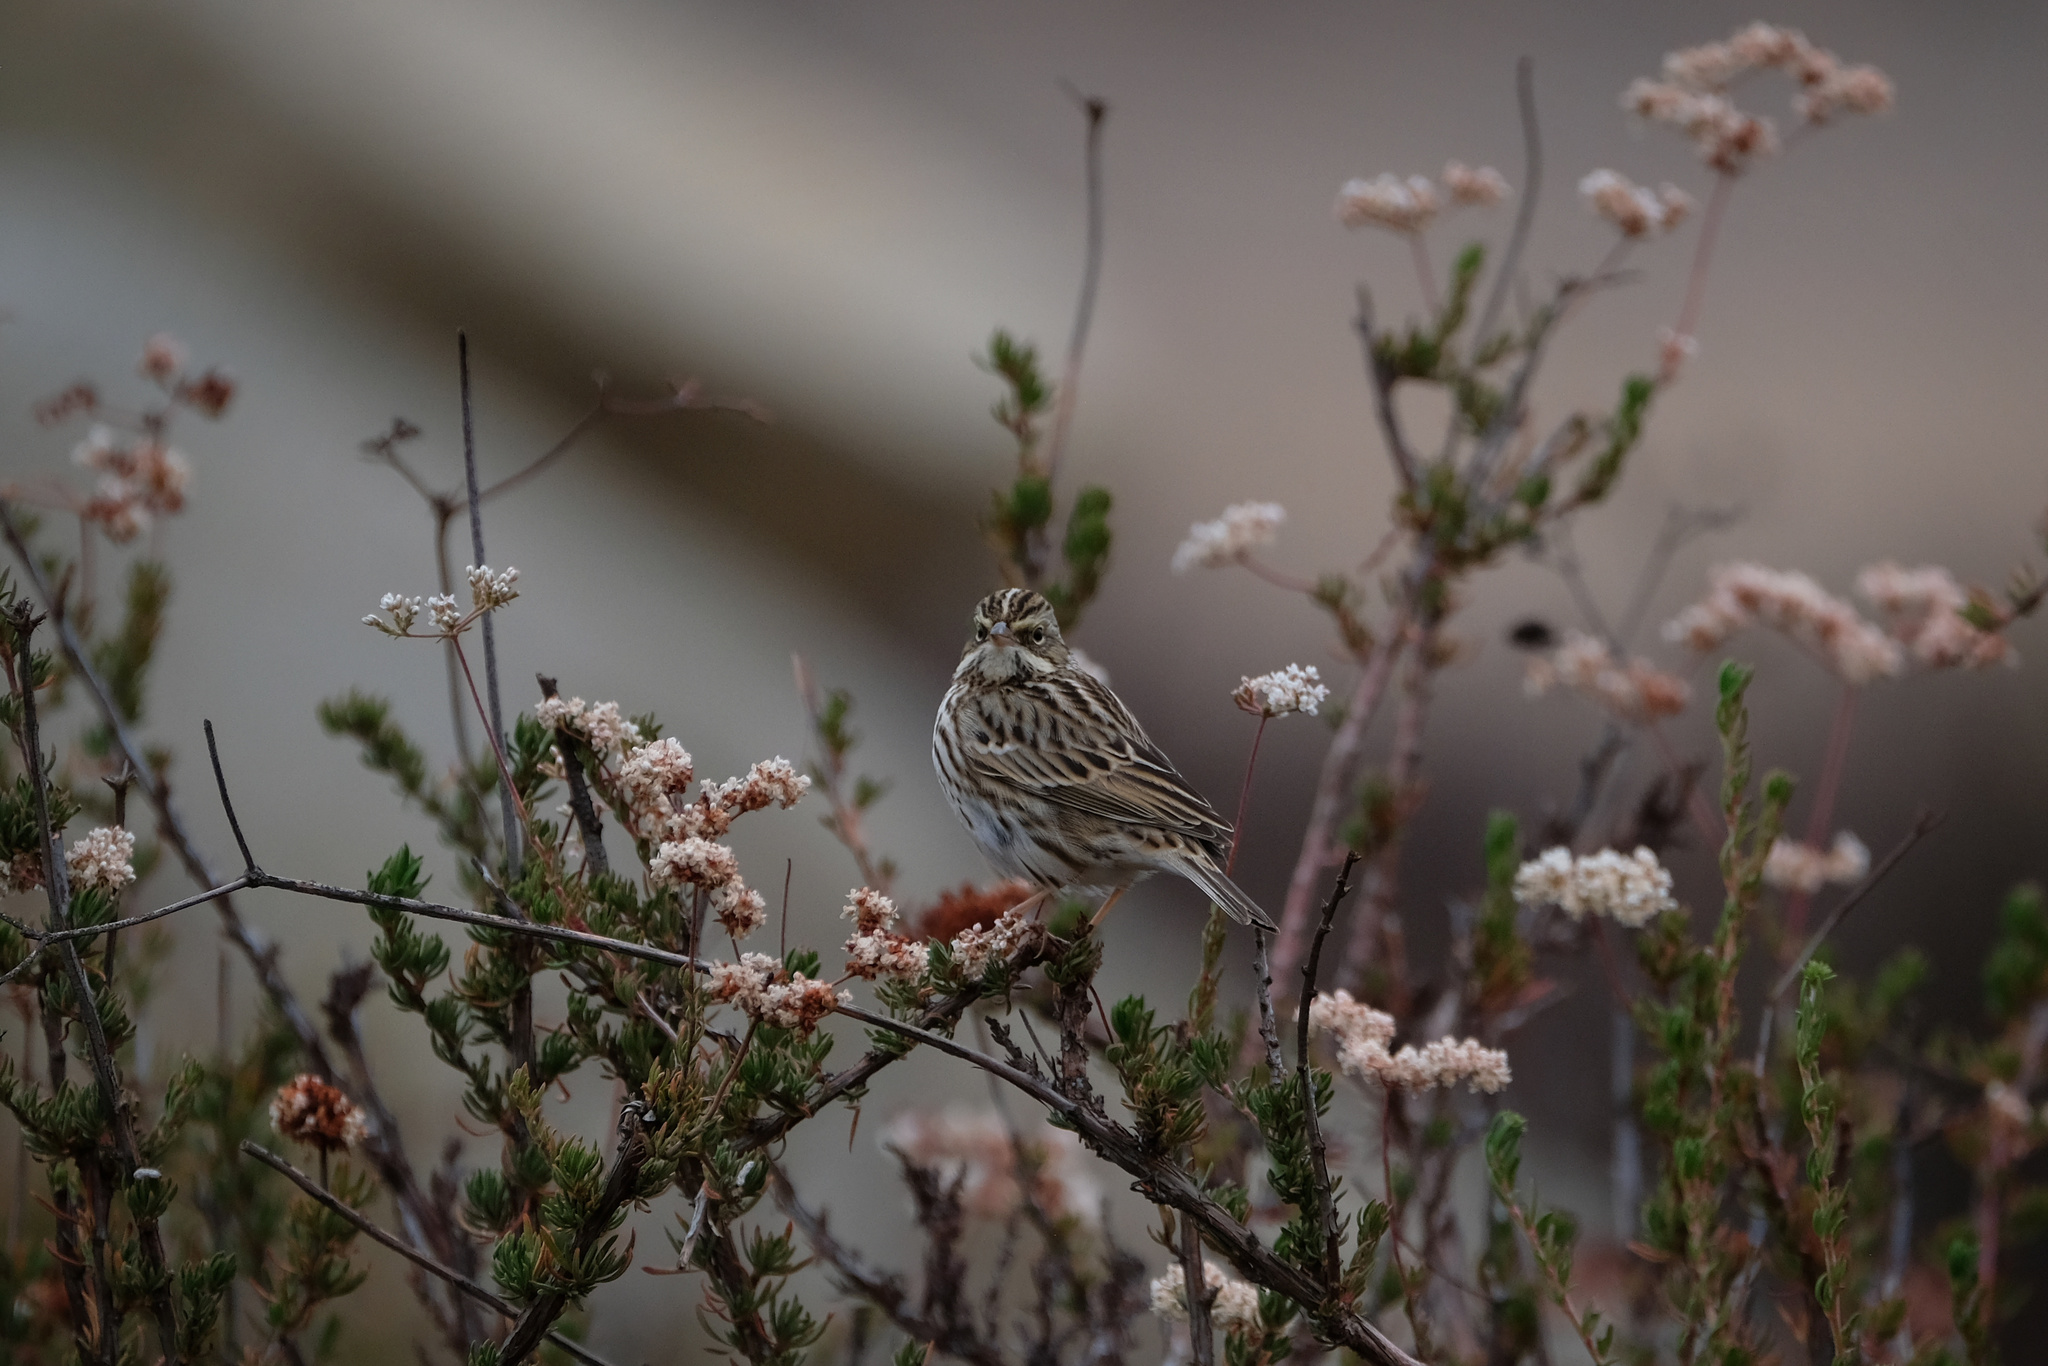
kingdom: Animalia
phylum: Chordata
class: Aves
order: Passeriformes
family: Passerellidae
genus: Passerculus
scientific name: Passerculus sandwichensis
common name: Savannah sparrow
